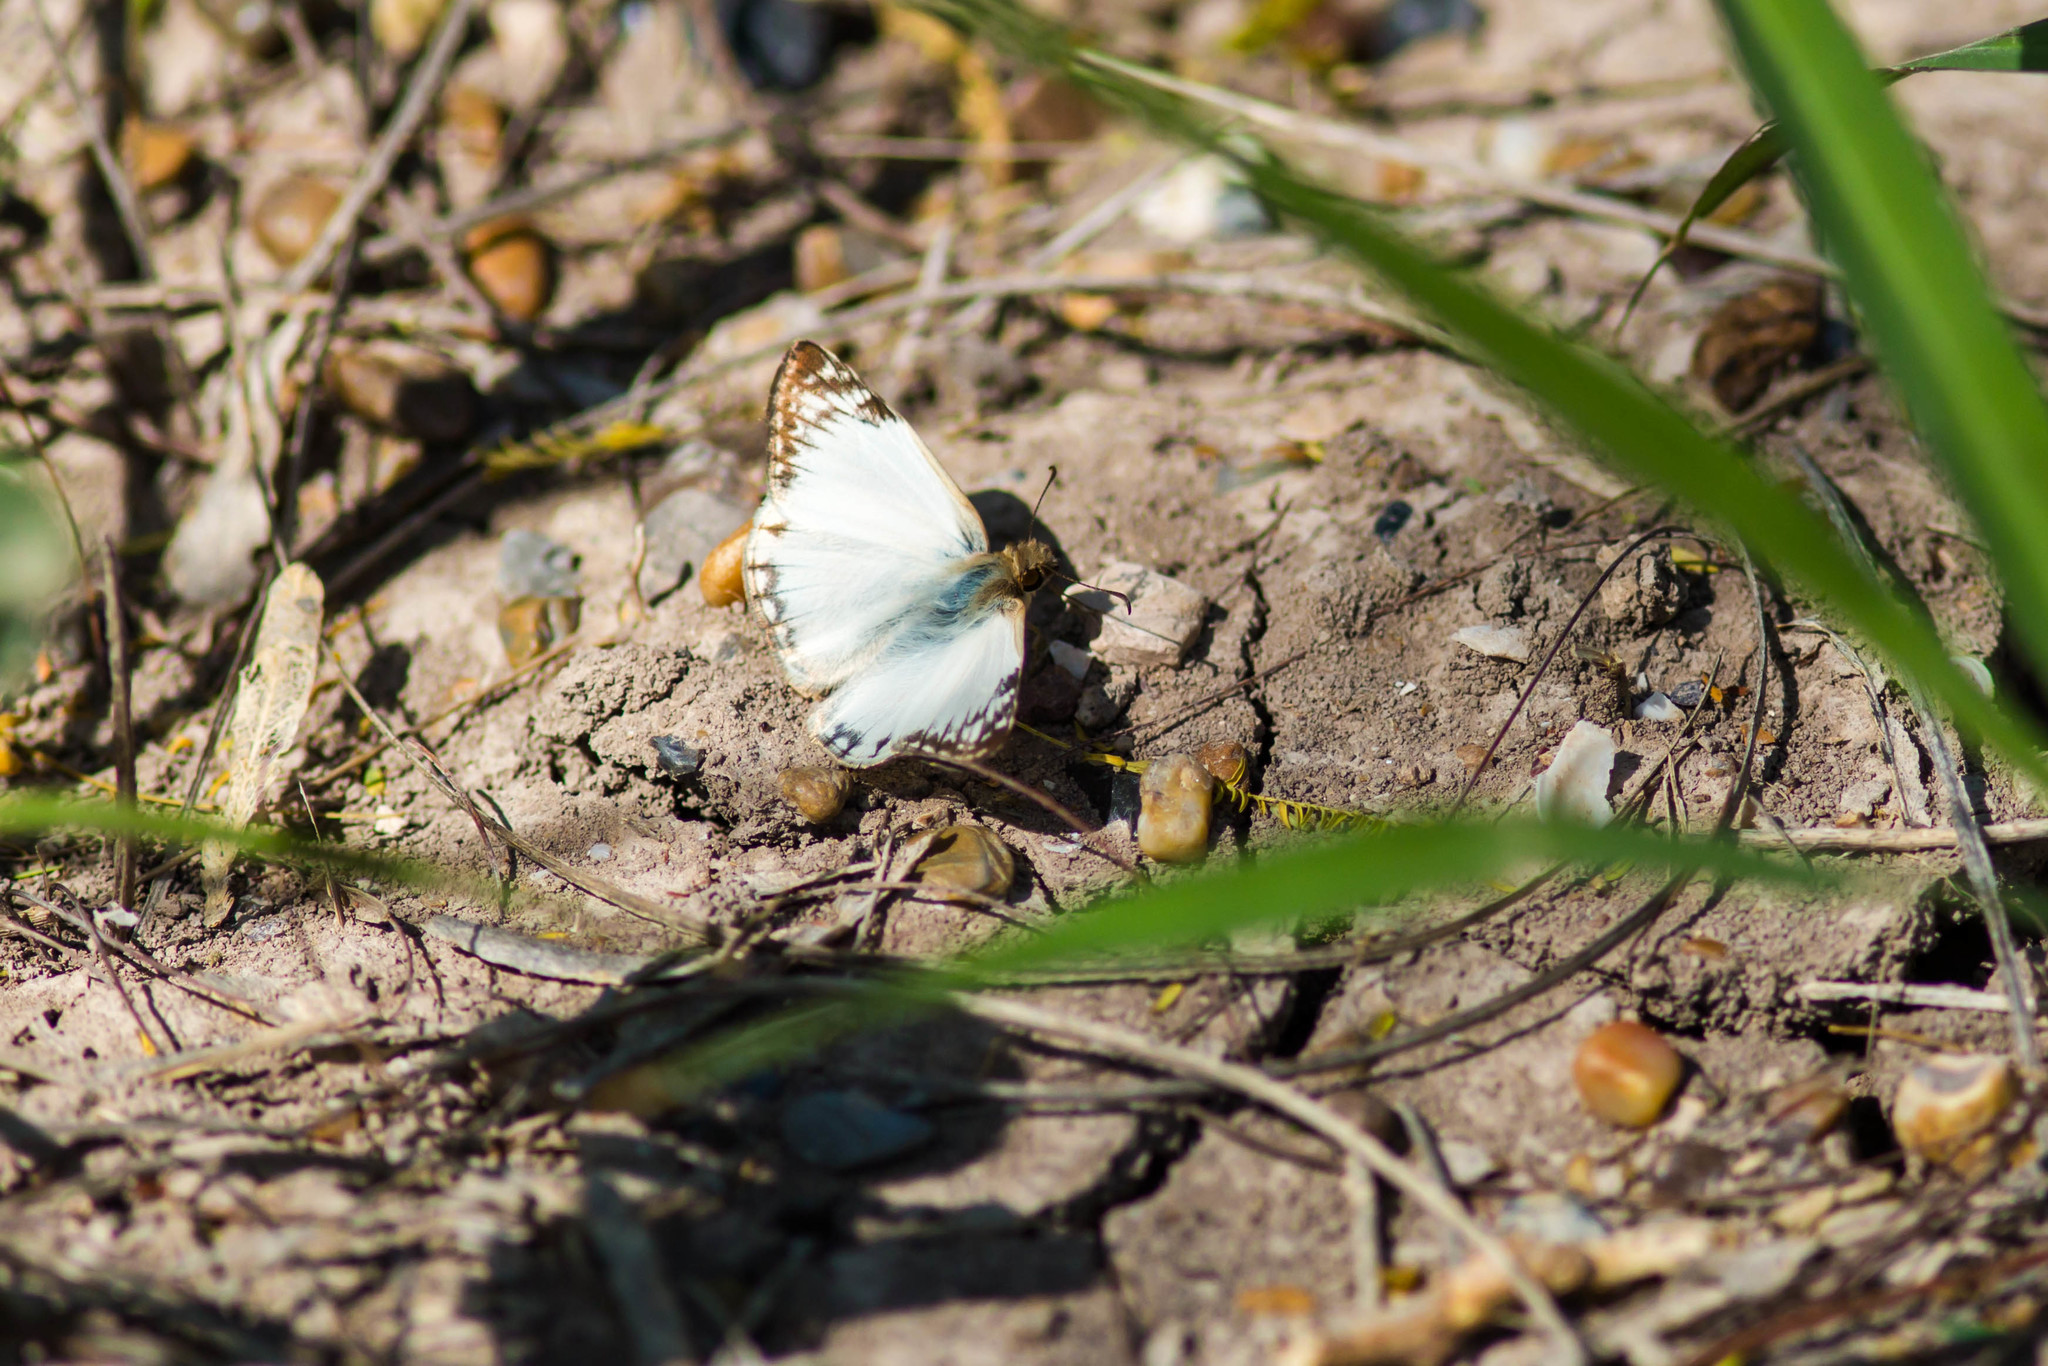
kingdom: Animalia
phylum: Arthropoda
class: Insecta
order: Lepidoptera
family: Hesperiidae
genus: Heliopetes
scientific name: Heliopetes laviana
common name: Laviana white-skipper
